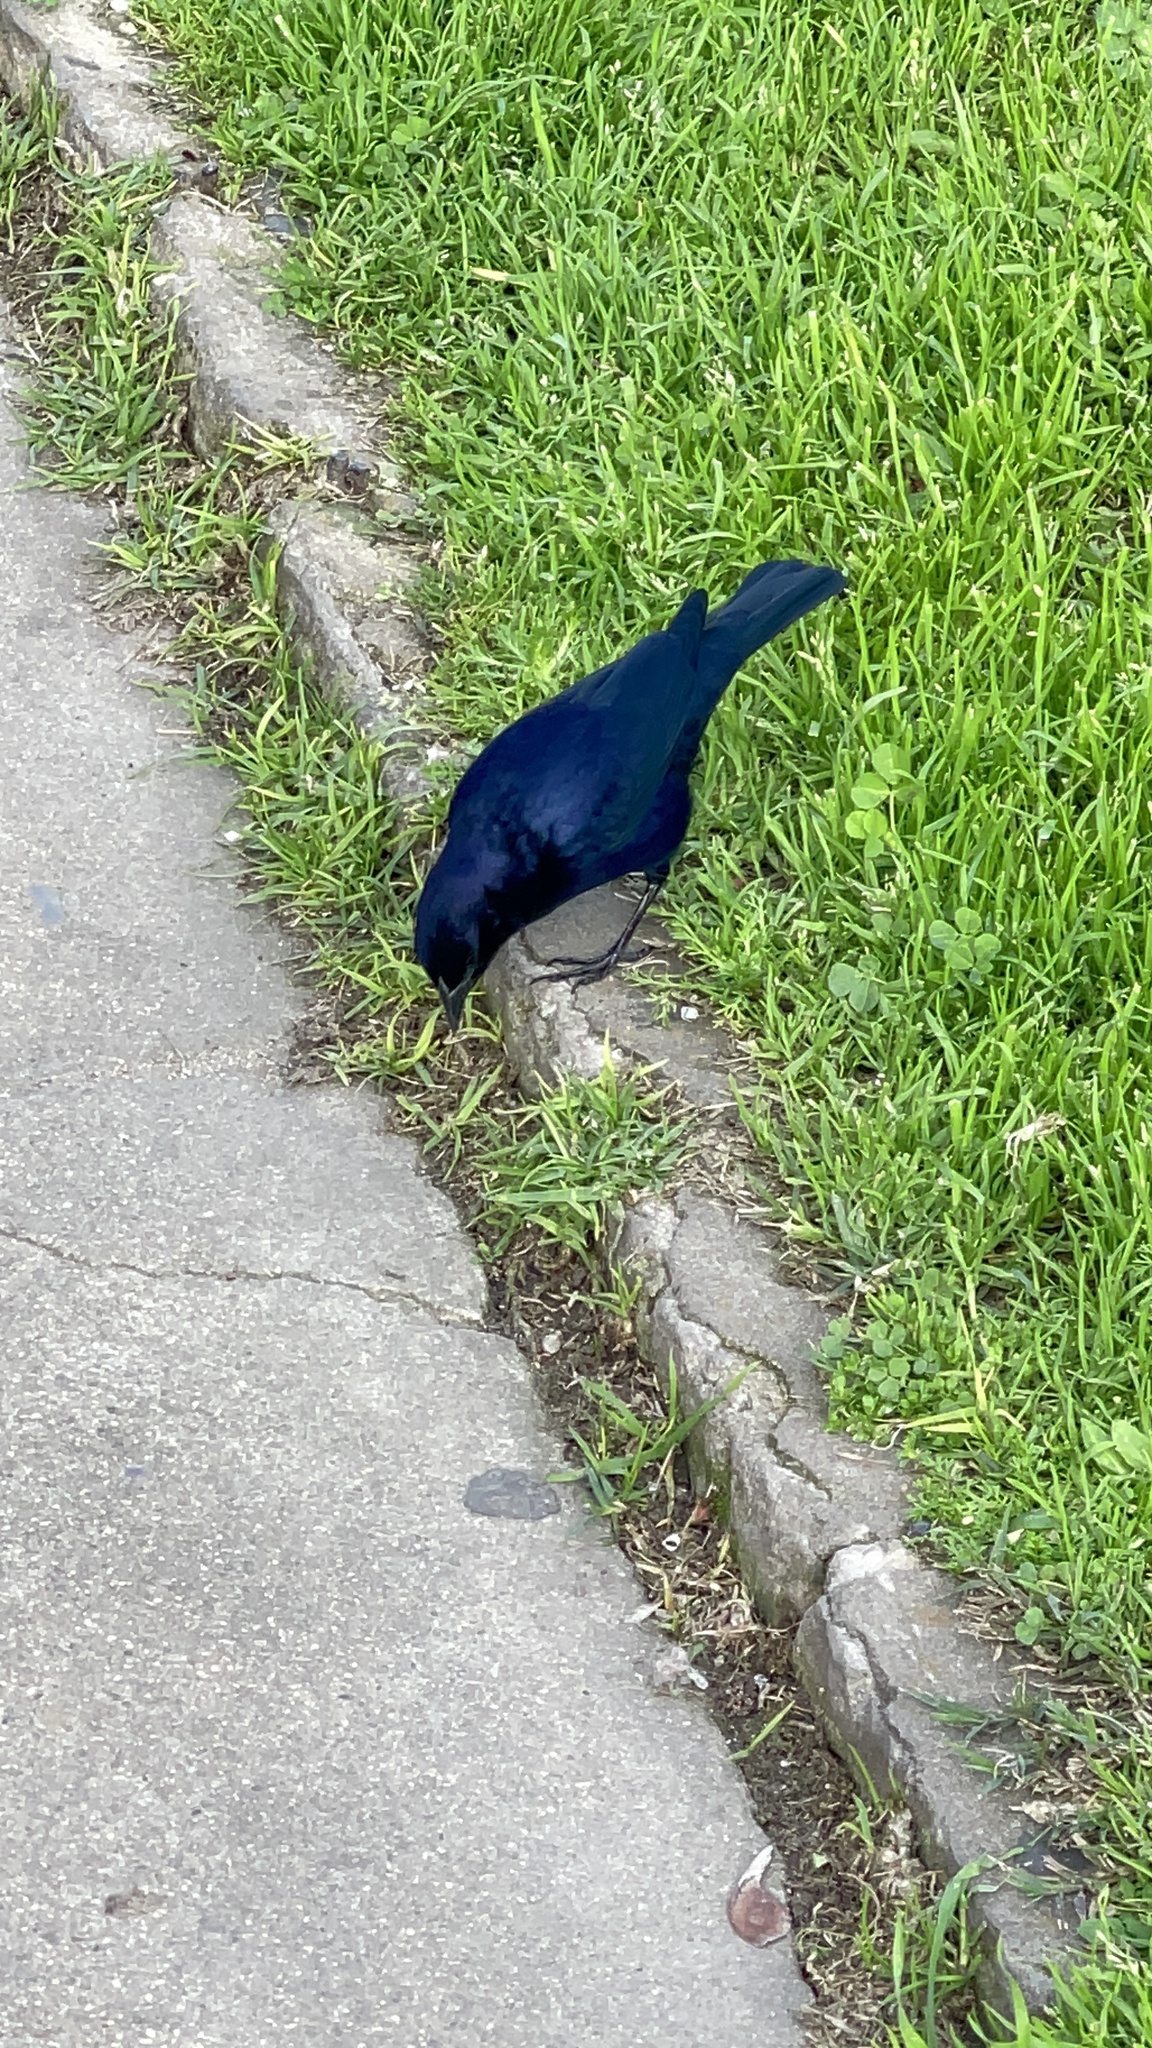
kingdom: Animalia
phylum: Chordata
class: Aves
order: Passeriformes
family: Icteridae
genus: Molothrus
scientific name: Molothrus bonariensis
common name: Shiny cowbird
